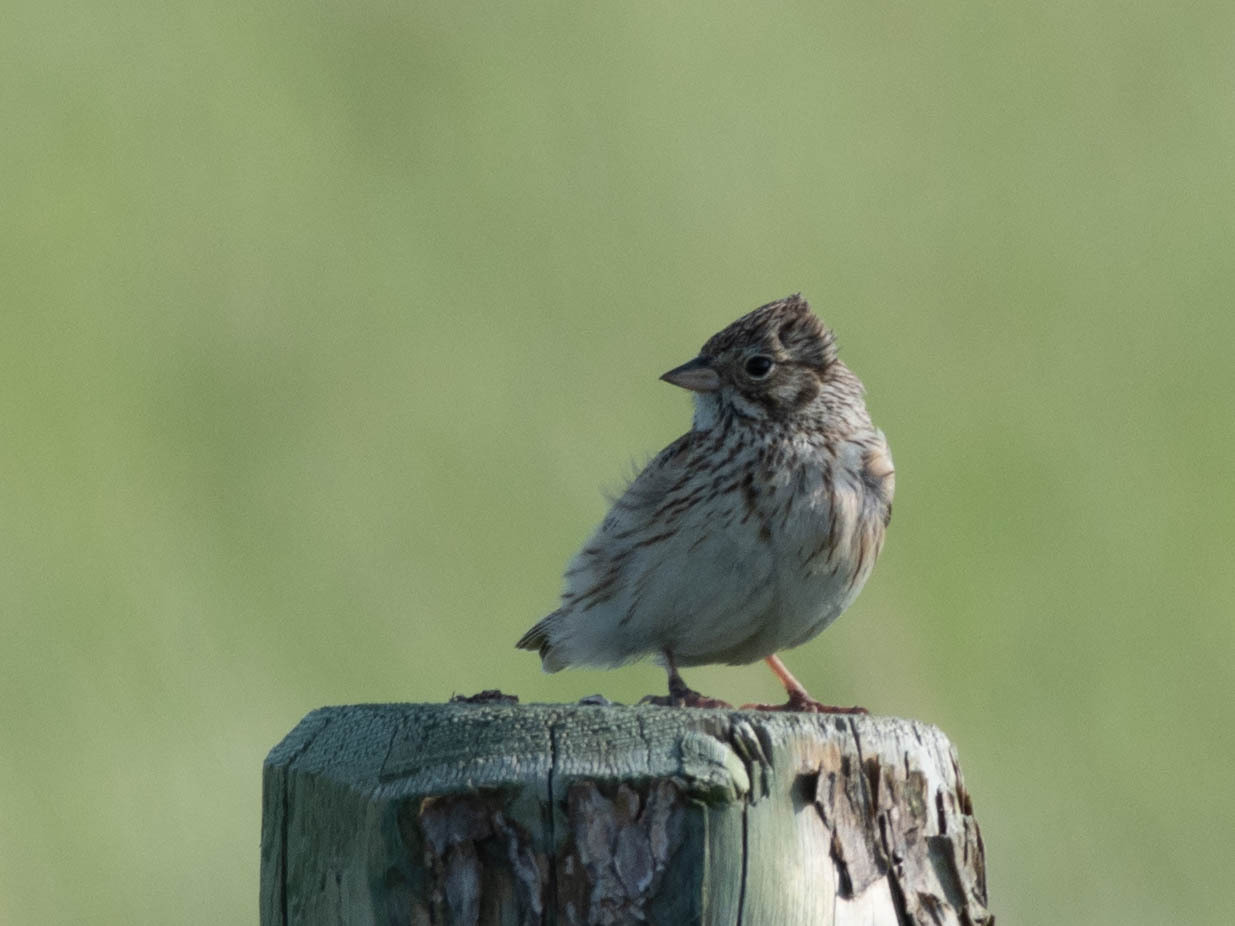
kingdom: Animalia
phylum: Chordata
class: Aves
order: Passeriformes
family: Passerellidae
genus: Pooecetes
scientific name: Pooecetes gramineus
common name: Vesper sparrow
